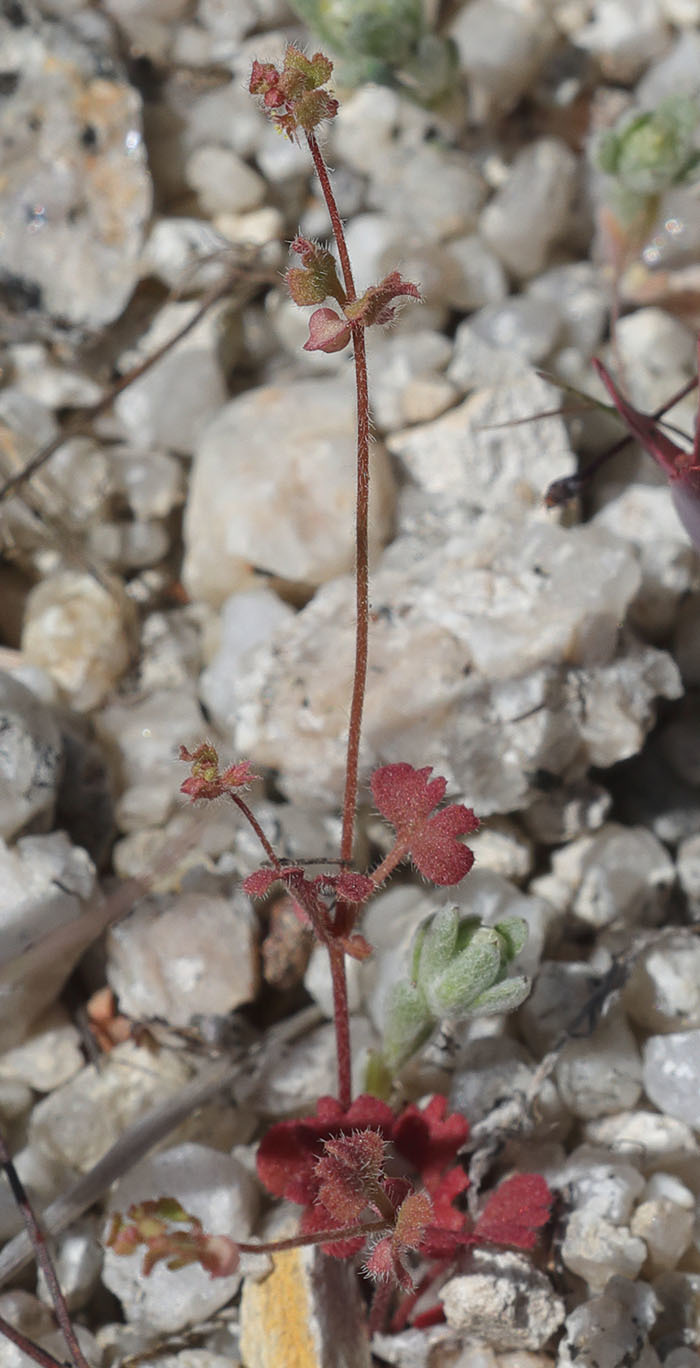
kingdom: Plantae
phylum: Tracheophyta
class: Magnoliopsida
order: Caryophyllales
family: Polygonaceae
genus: Pterostegia
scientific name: Pterostegia drymarioides
